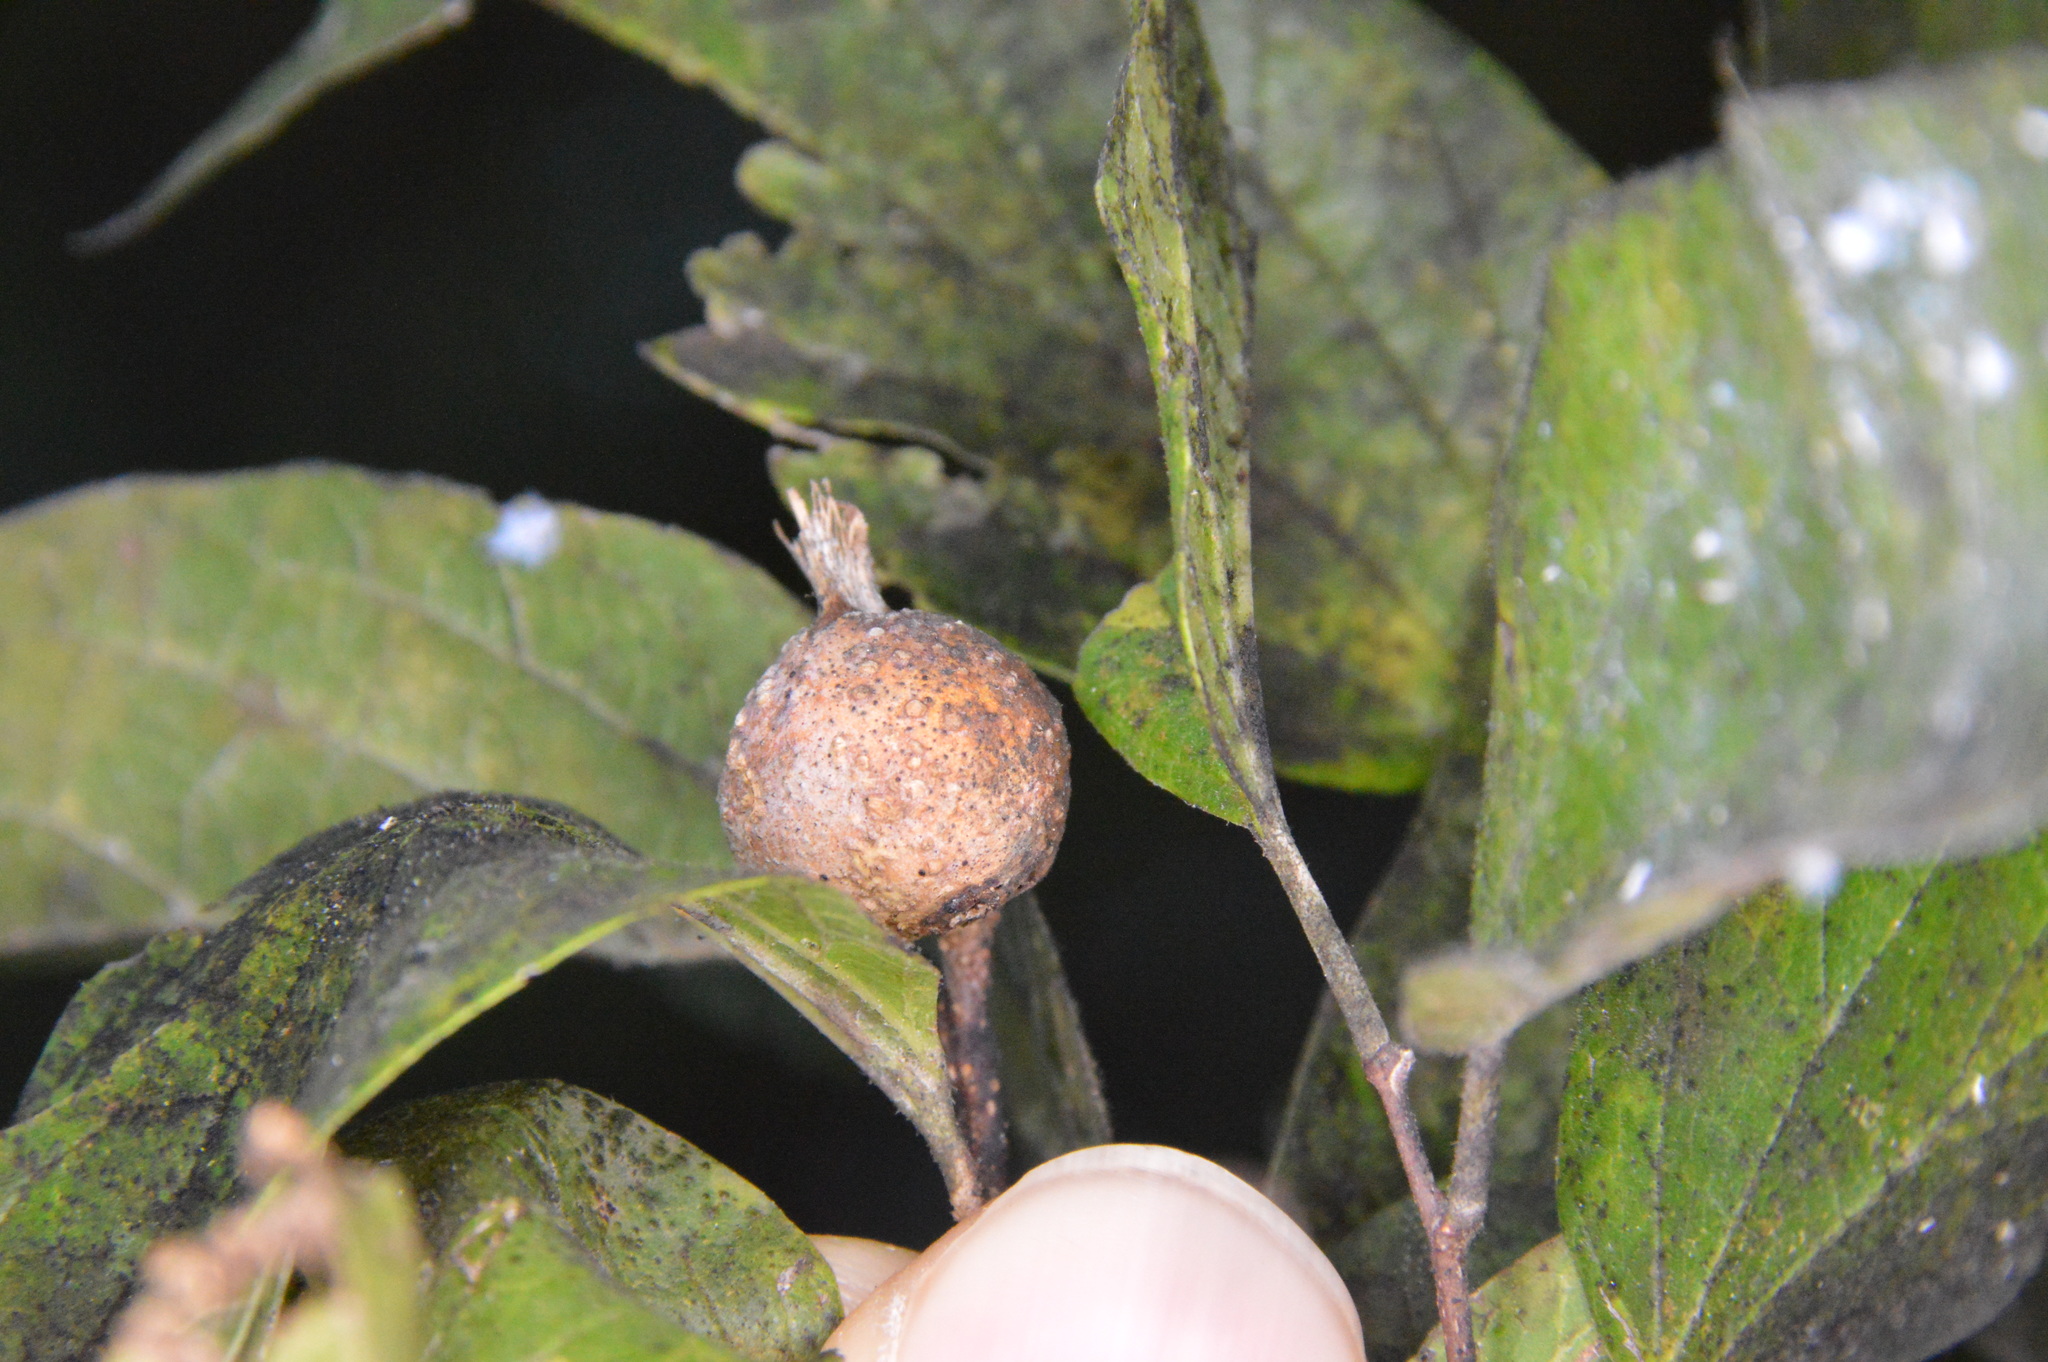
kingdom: Animalia
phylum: Arthropoda
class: Insecta
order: Hemiptera
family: Aphalaridae
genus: Pachypsylla
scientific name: Pachypsylla venusta
